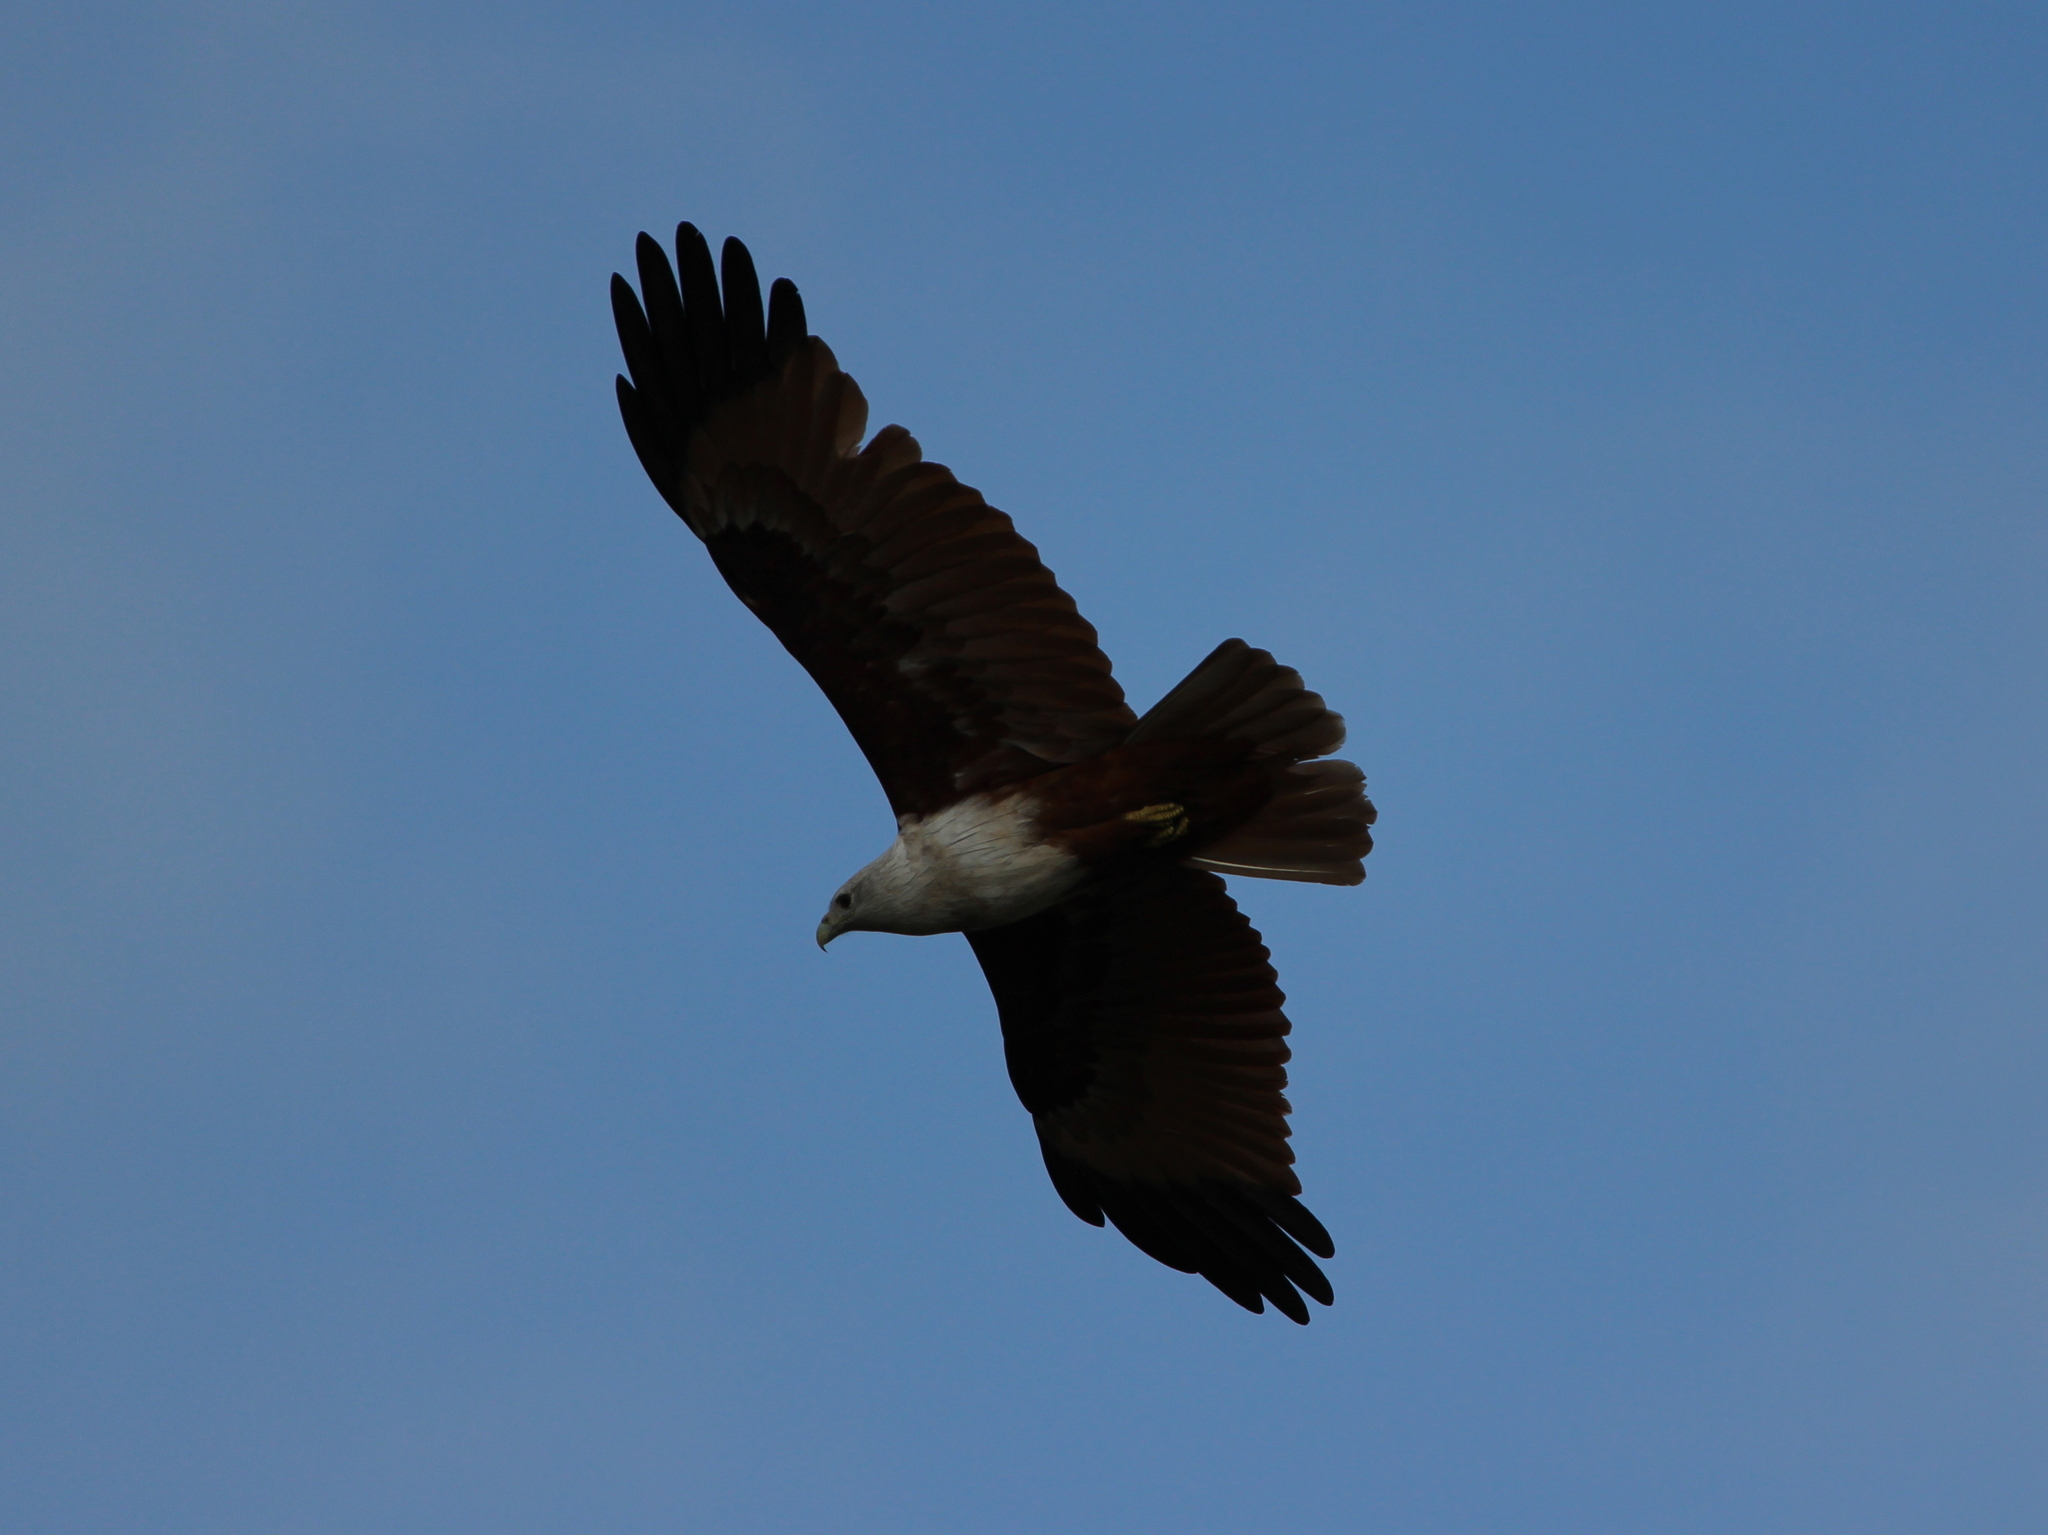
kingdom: Animalia
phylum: Chordata
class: Aves
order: Accipitriformes
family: Accipitridae
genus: Haliastur
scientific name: Haliastur indus
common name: Brahminy kite
